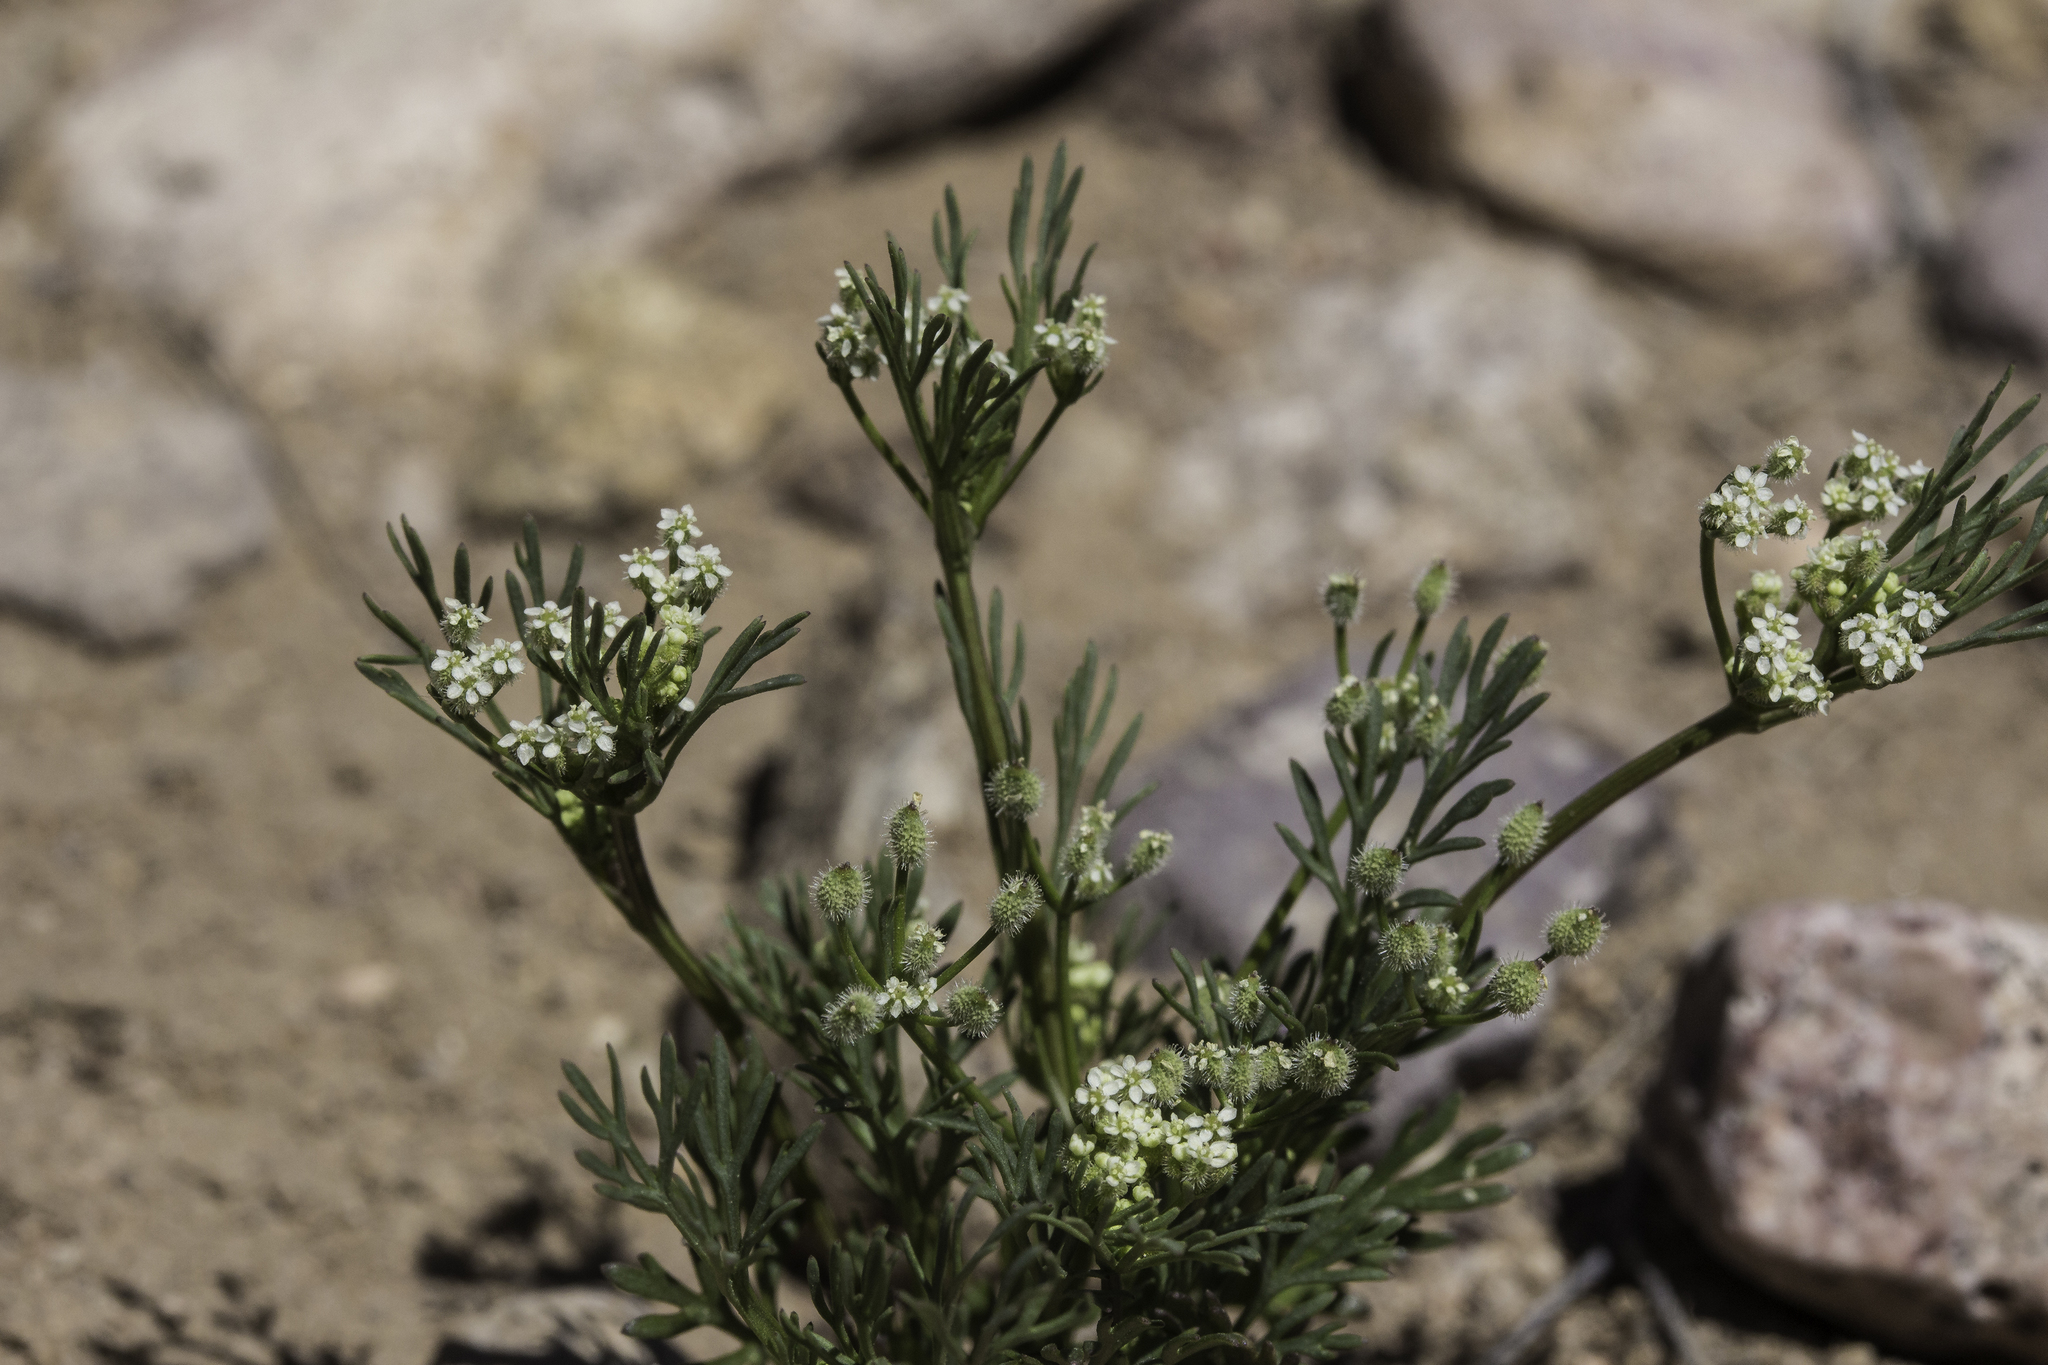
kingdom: Plantae
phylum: Tracheophyta
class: Magnoliopsida
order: Apiales
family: Apiaceae
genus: Spermolepis
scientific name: Spermolepis lateriflora
